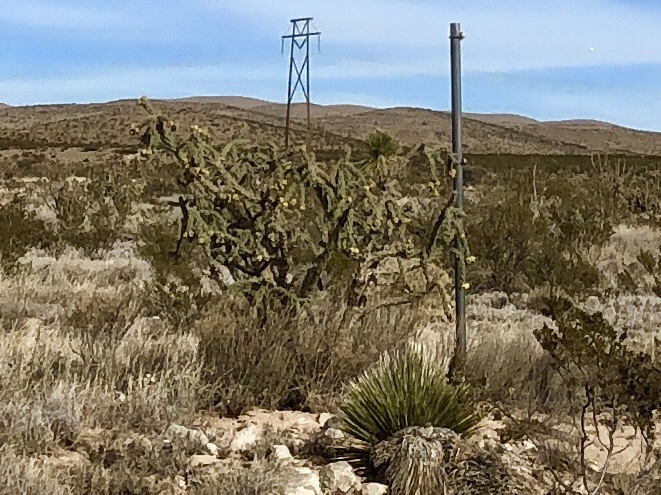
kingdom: Plantae
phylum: Tracheophyta
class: Magnoliopsida
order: Caryophyllales
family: Cactaceae
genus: Cylindropuntia
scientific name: Cylindropuntia imbricata
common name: Candelabrum cactus
